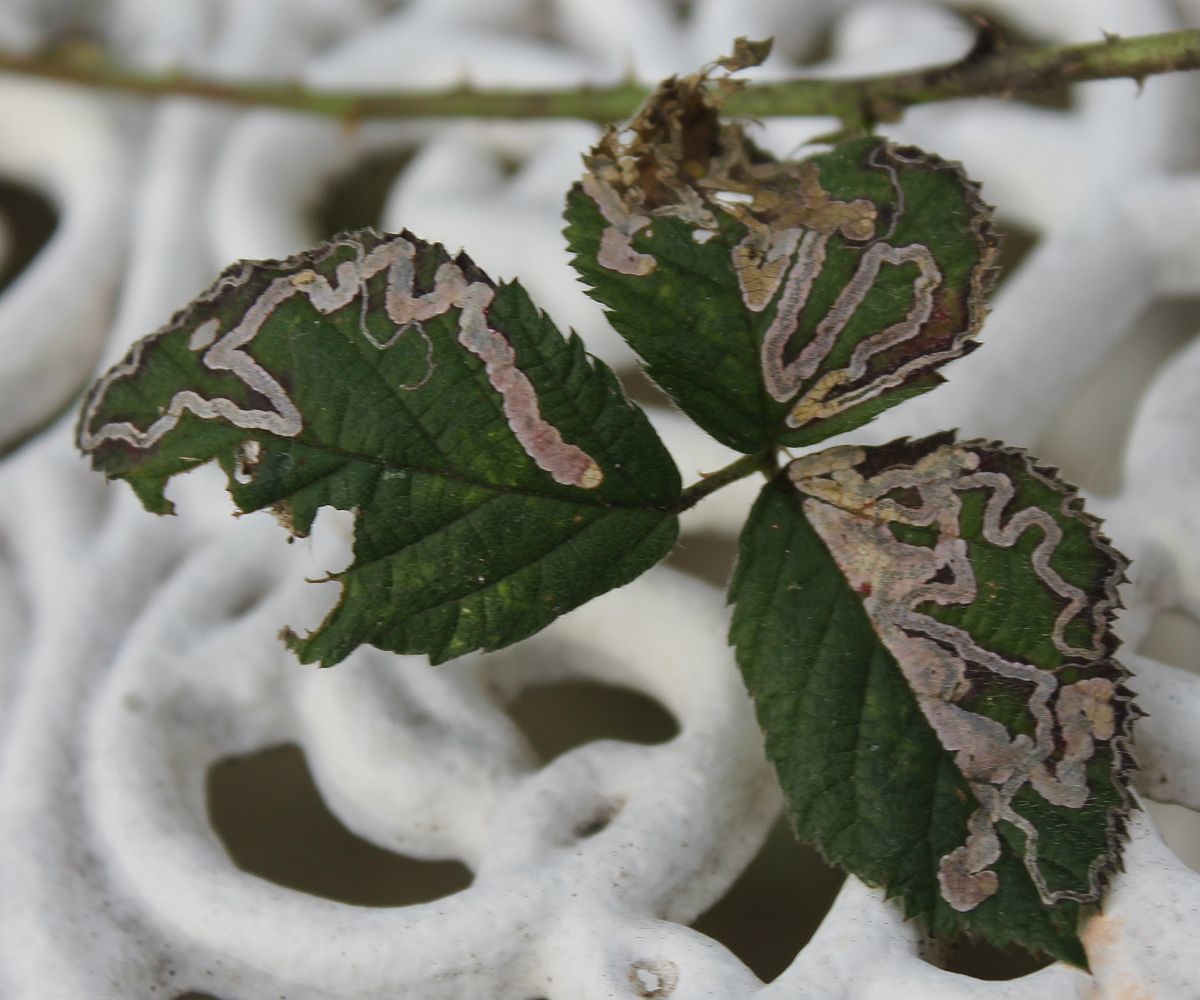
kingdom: Animalia
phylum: Arthropoda
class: Insecta
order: Lepidoptera
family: Nepticulidae
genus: Stigmella
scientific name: Stigmella aurella
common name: Golden pigmy
